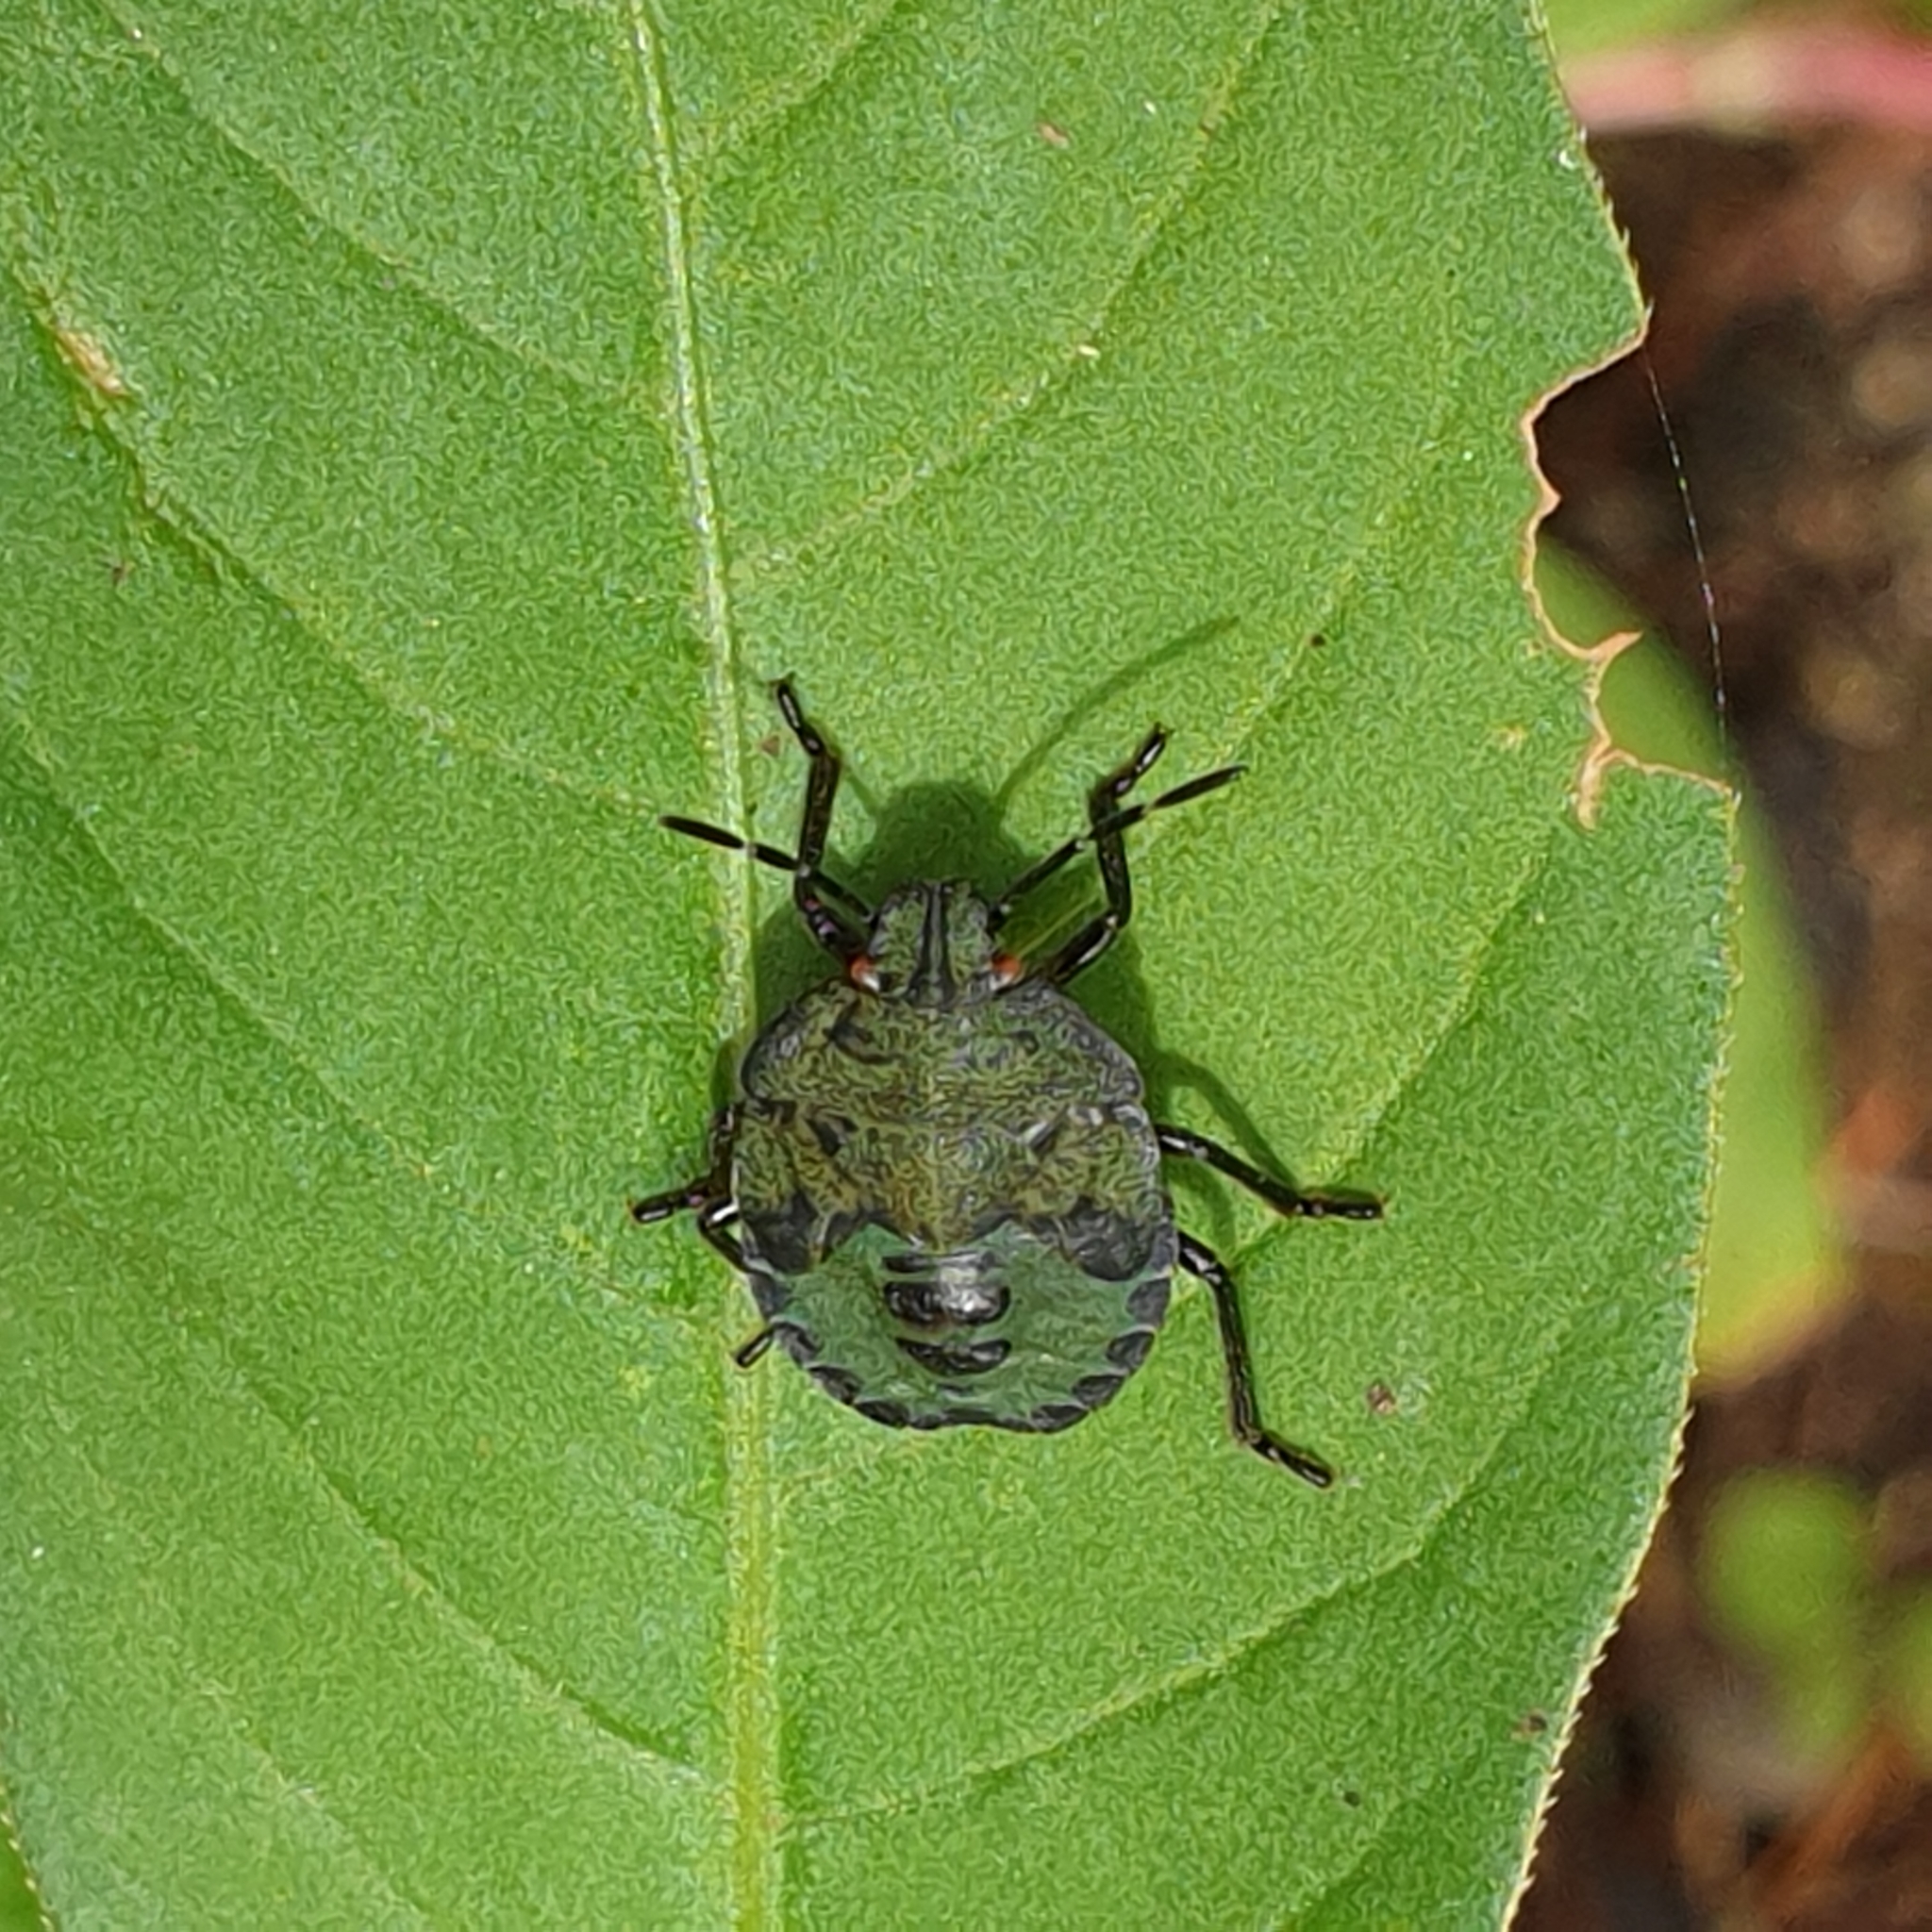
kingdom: Animalia
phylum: Arthropoda
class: Insecta
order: Hemiptera
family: Pentatomidae
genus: Palomena
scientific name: Palomena prasina
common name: Green shieldbug
